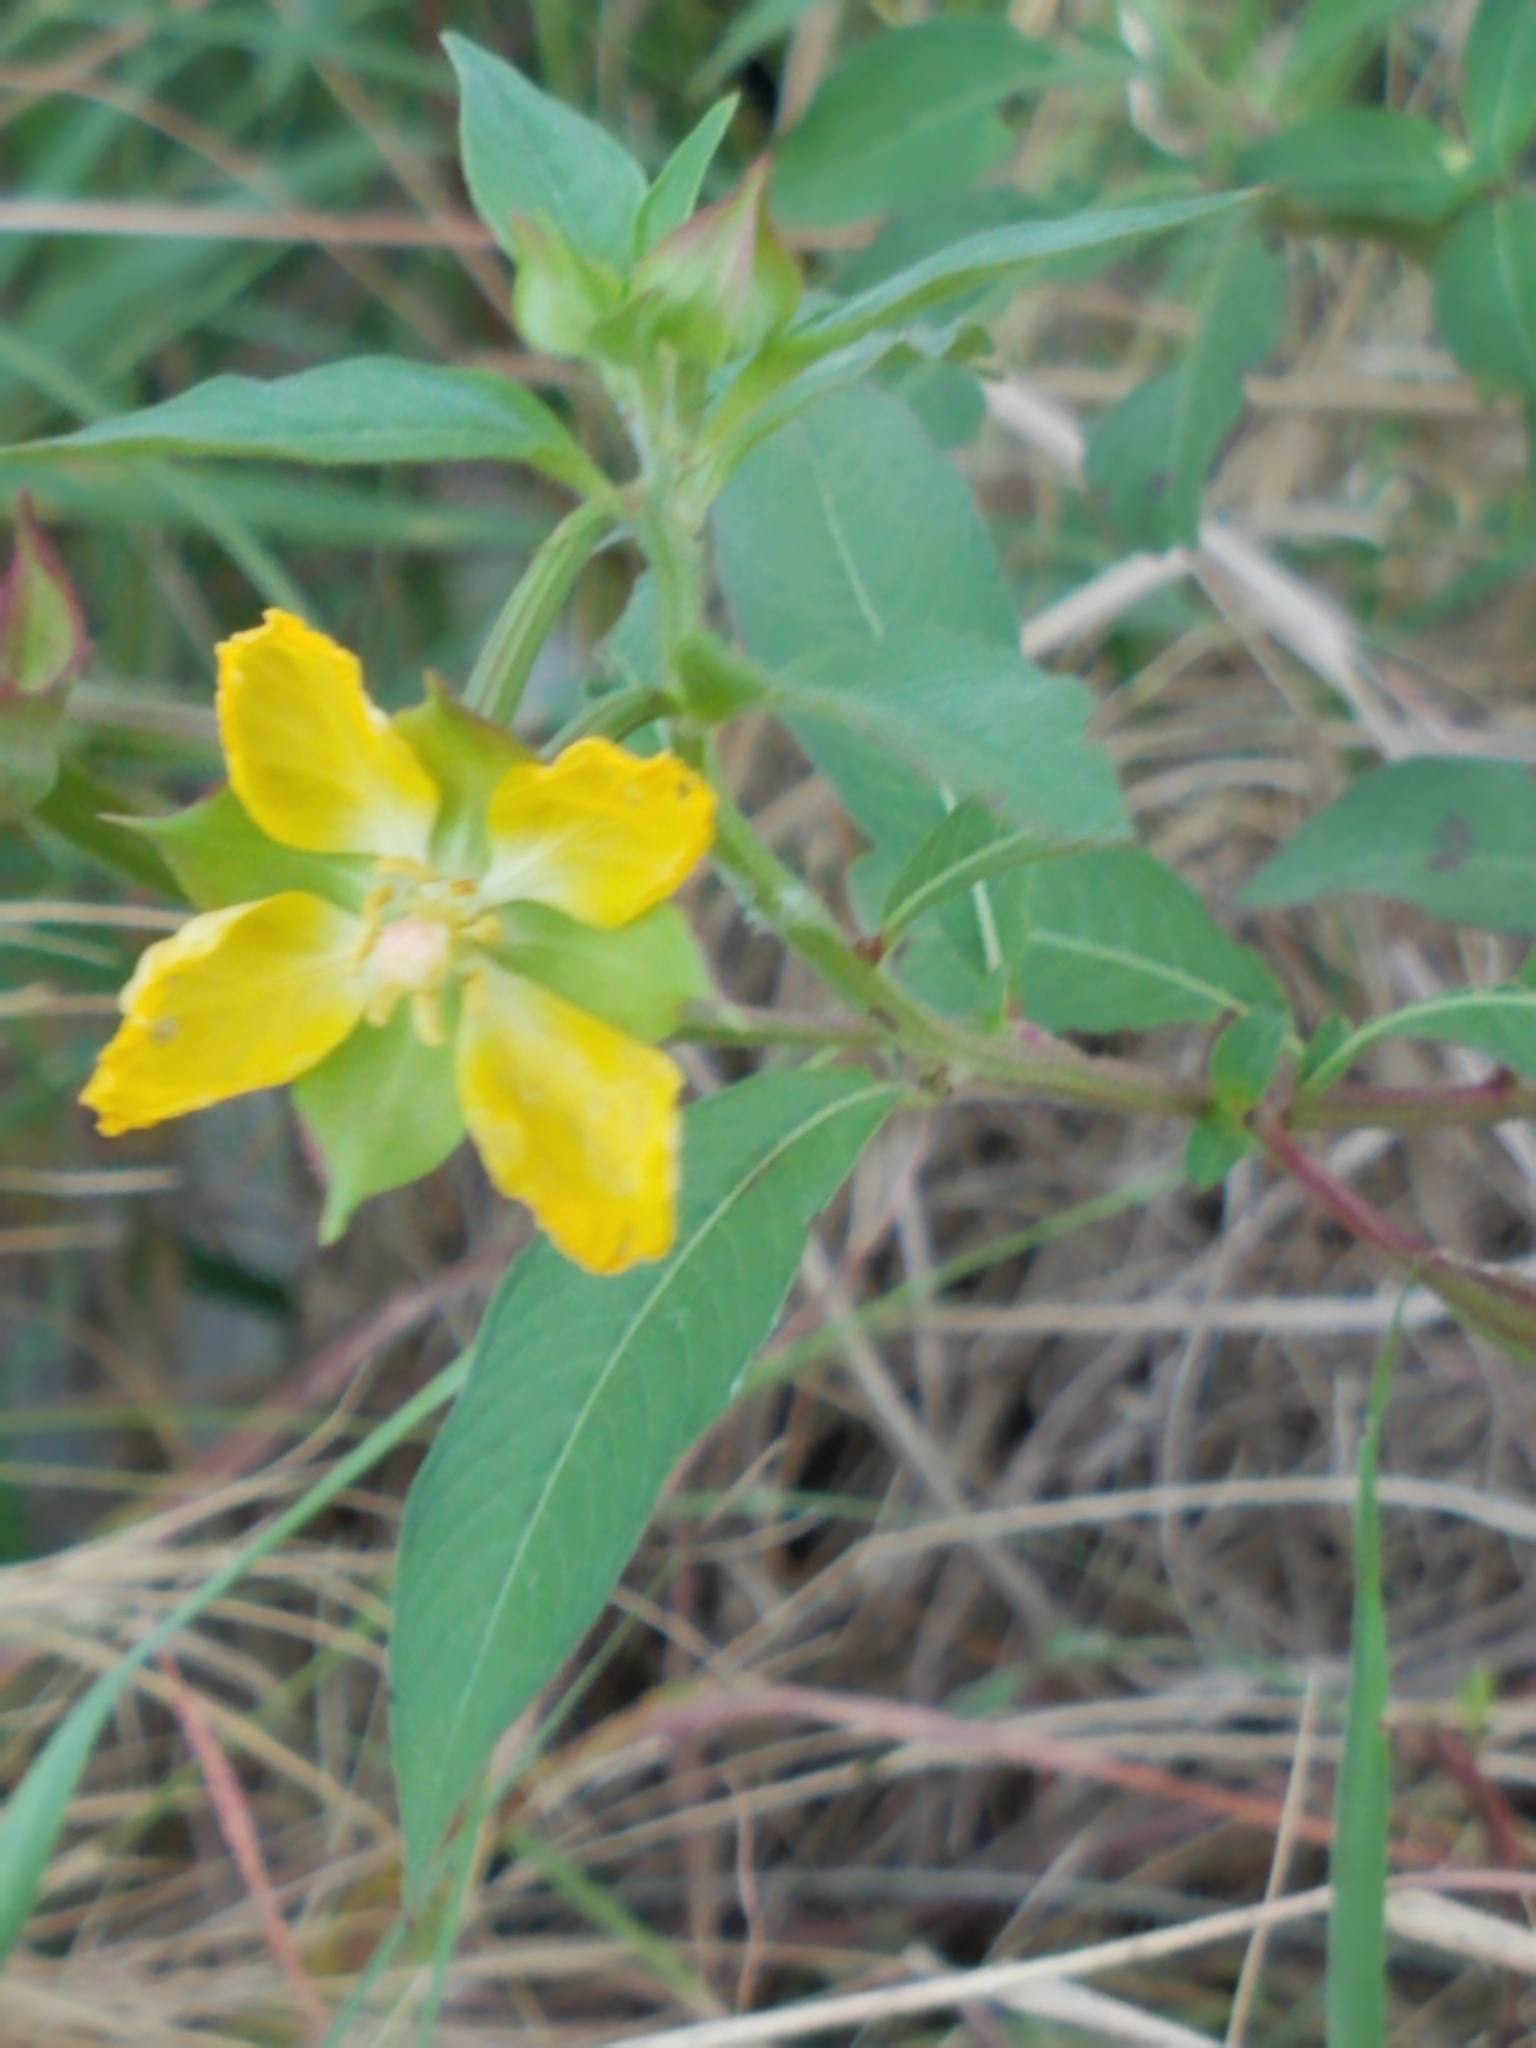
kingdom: Plantae
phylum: Tracheophyta
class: Magnoliopsida
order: Myrtales
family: Onagraceae
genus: Ludwigia
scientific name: Ludwigia octovalvis
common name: Water-primrose
